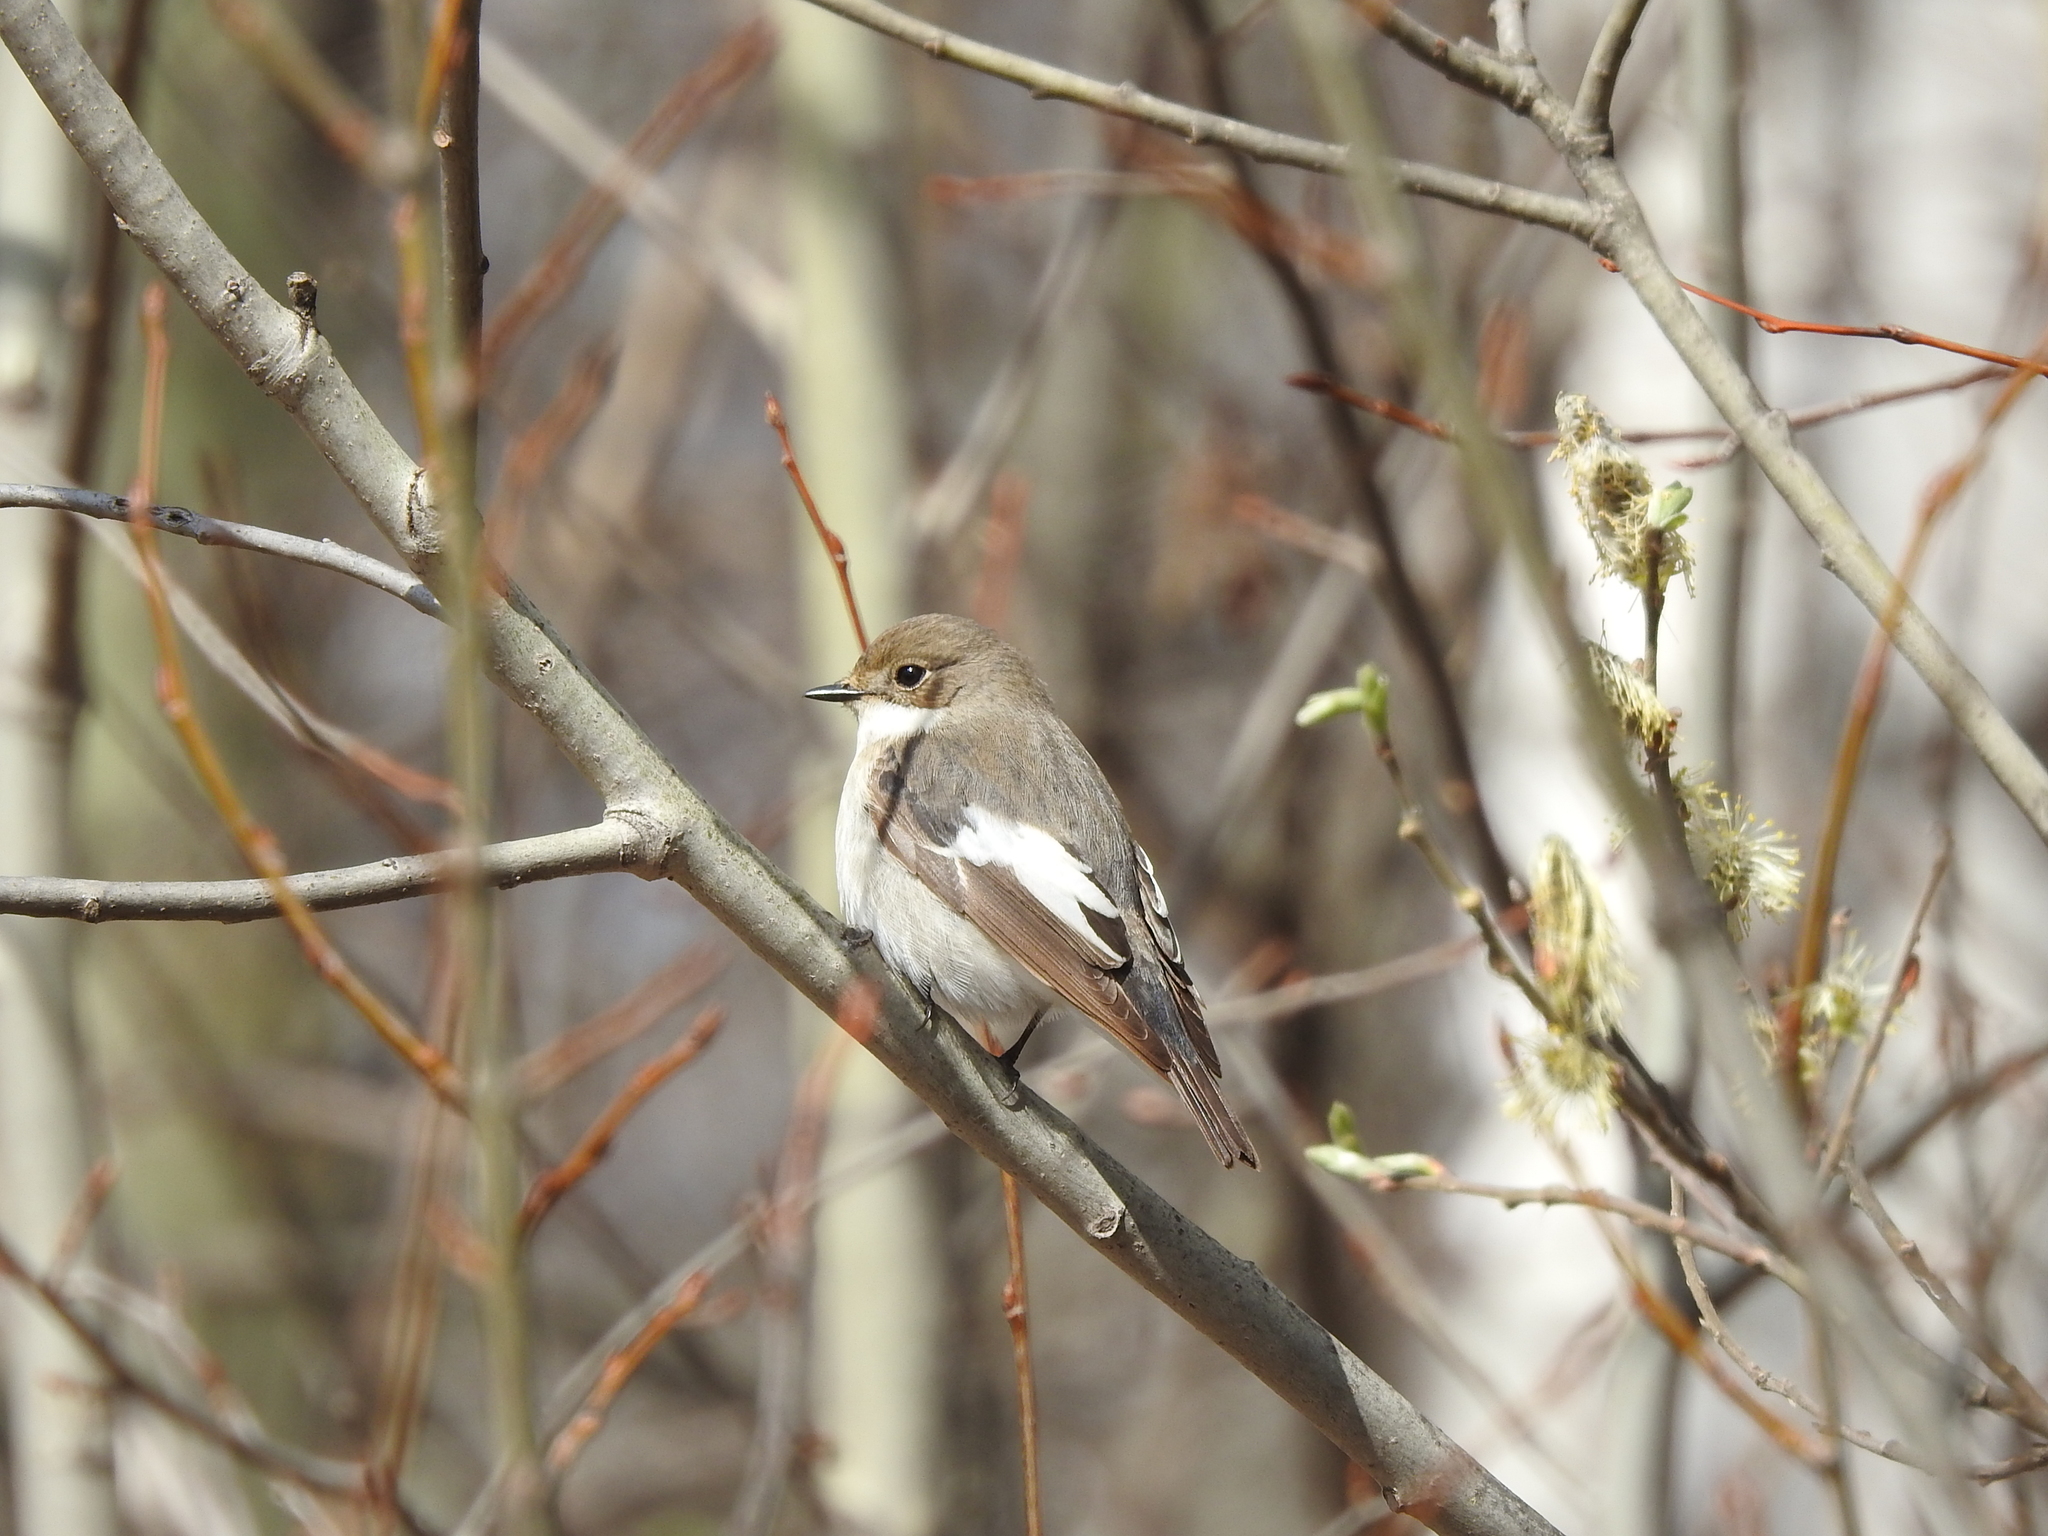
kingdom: Animalia
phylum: Chordata
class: Aves
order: Passeriformes
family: Muscicapidae
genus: Ficedula
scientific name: Ficedula hypoleuca
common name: European pied flycatcher
